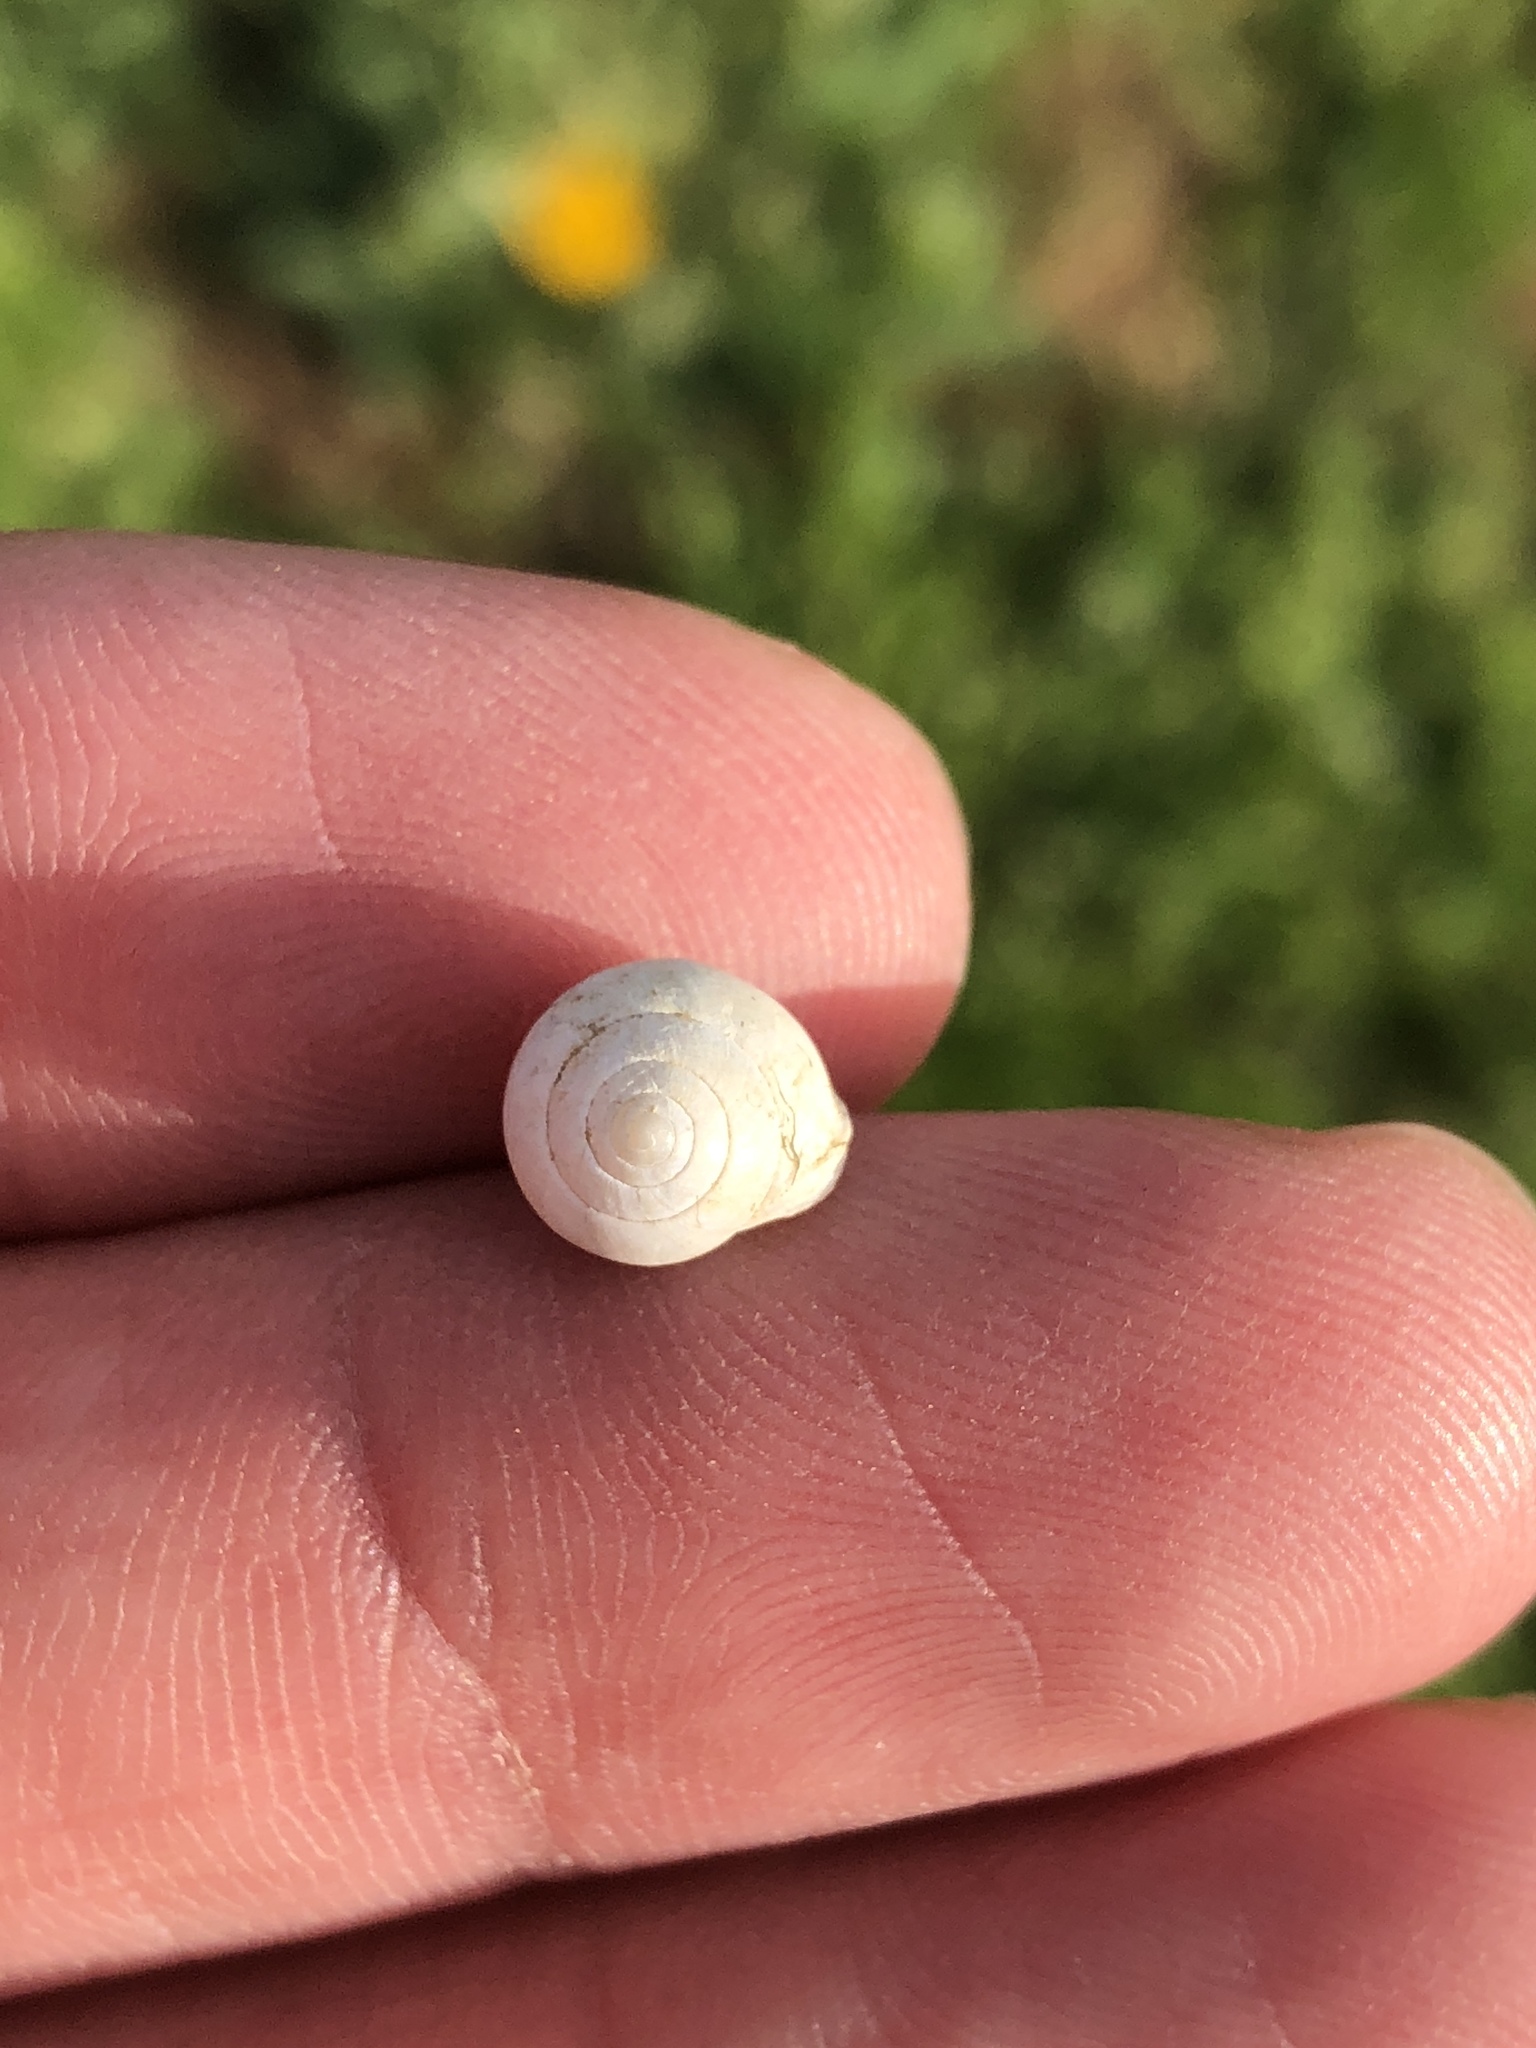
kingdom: Animalia
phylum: Mollusca
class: Gastropoda
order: Cycloneritida
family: Helicinidae
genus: Helicina
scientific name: Helicina orbiculata
